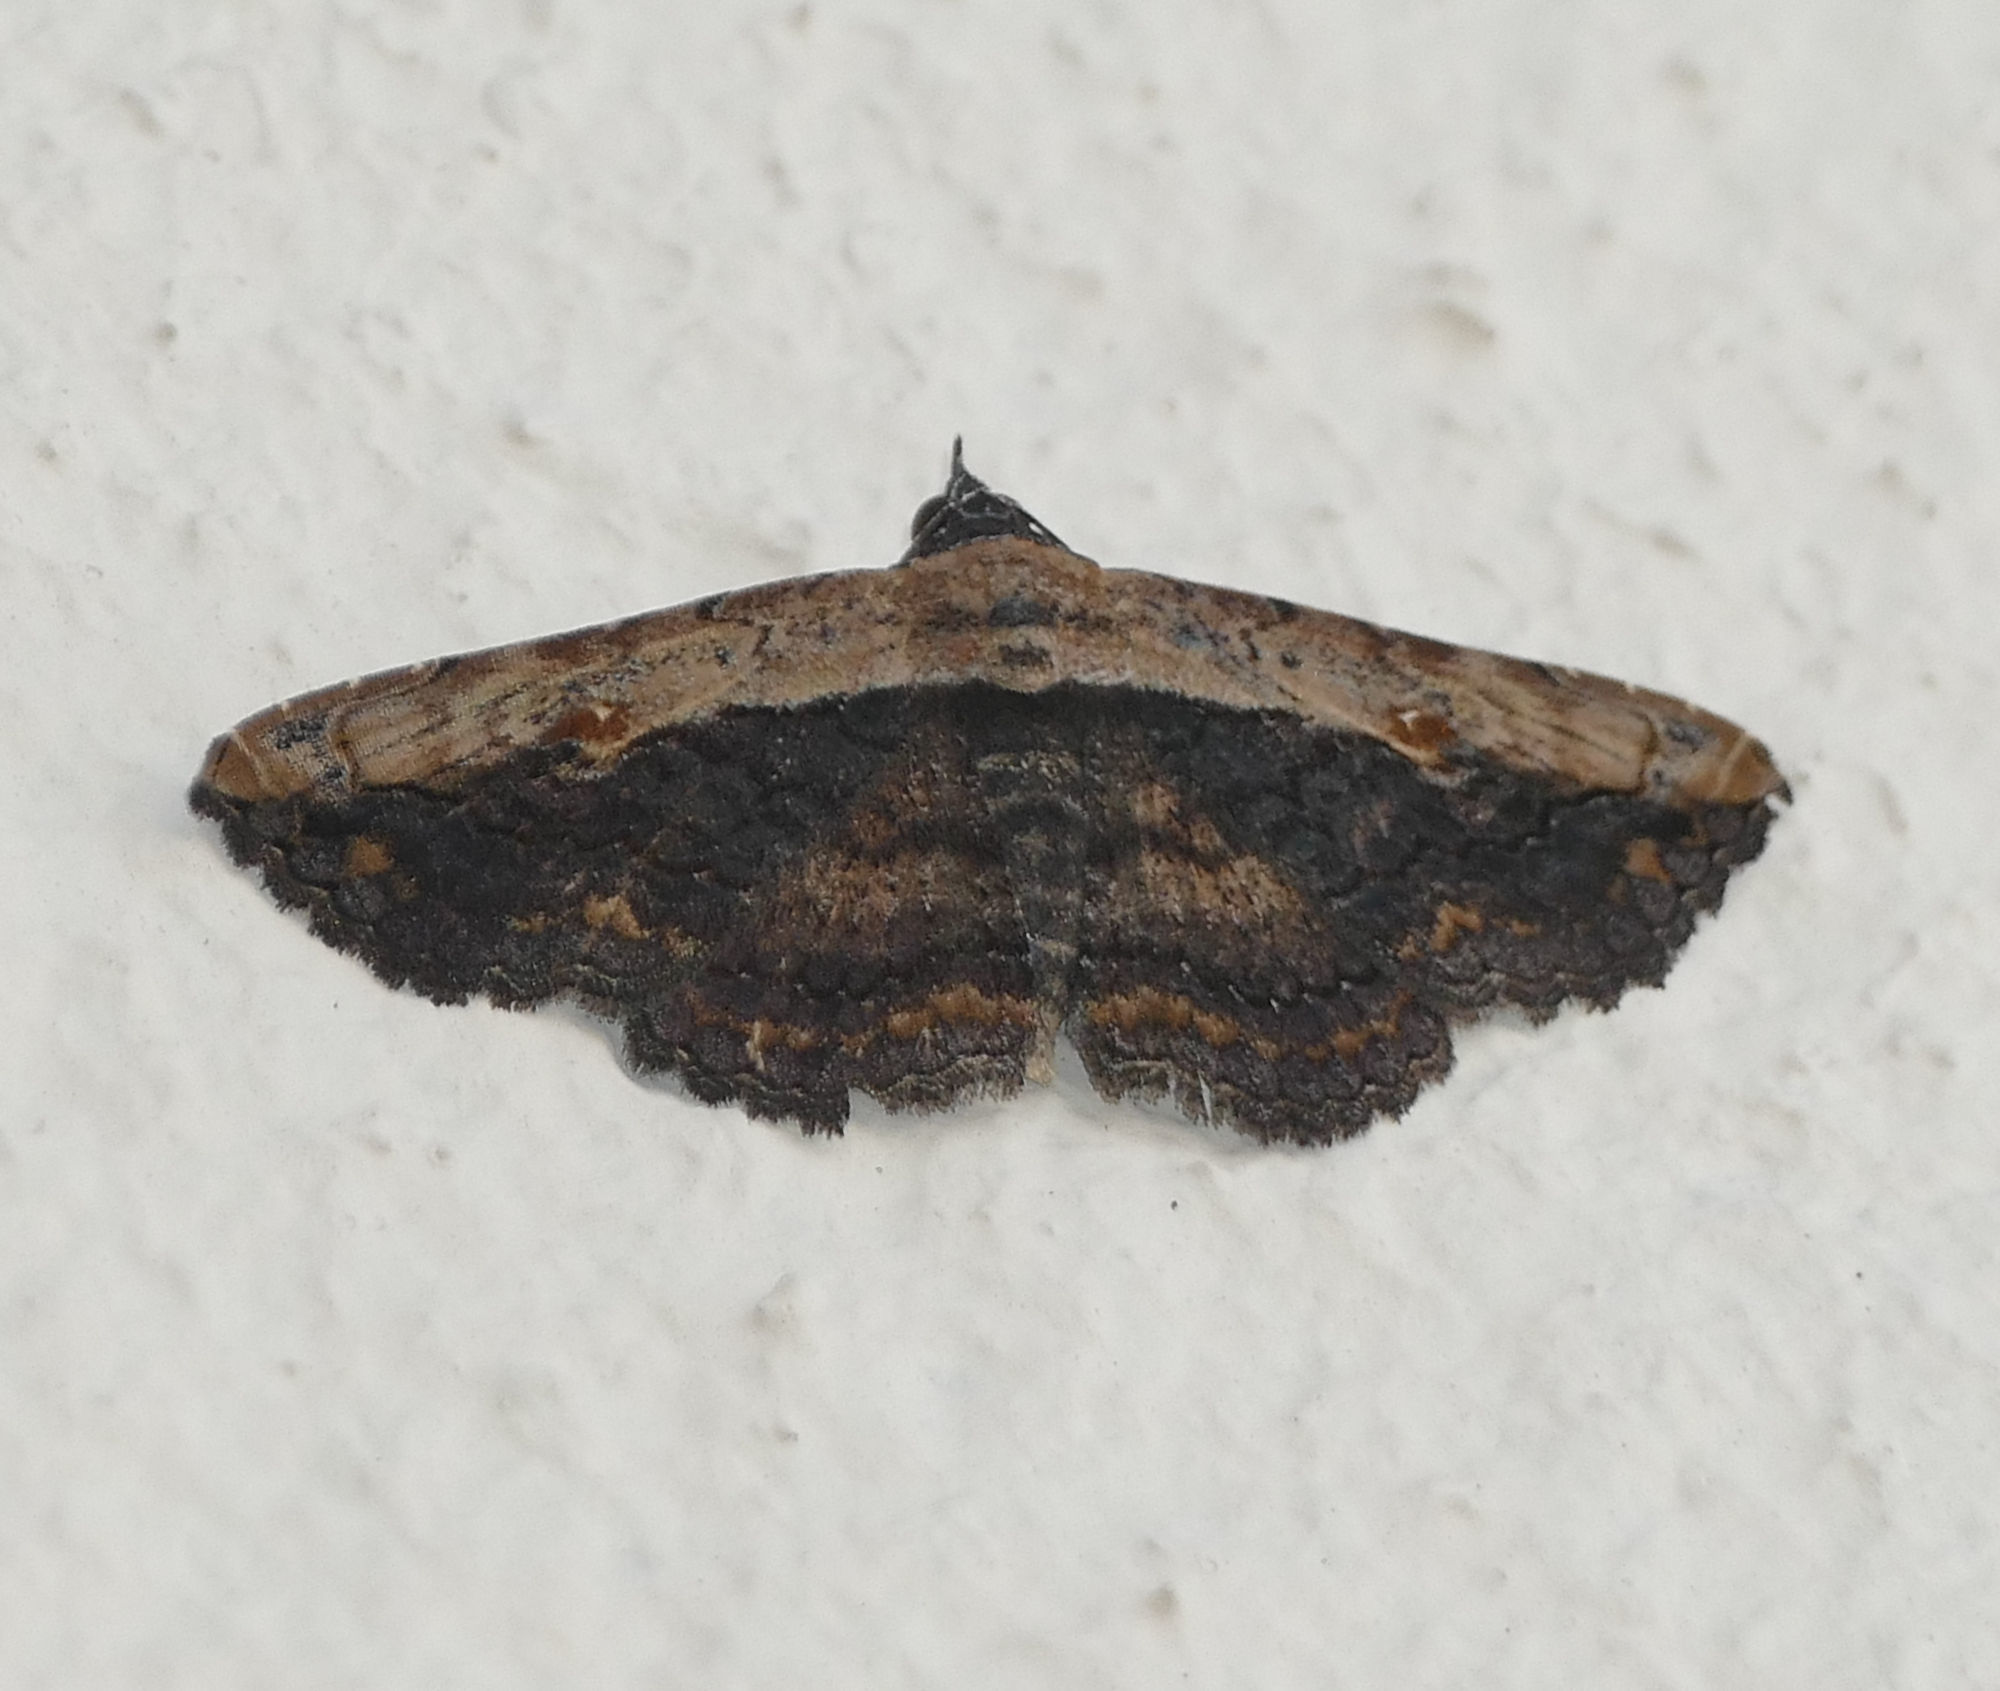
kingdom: Animalia
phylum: Arthropoda
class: Insecta
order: Lepidoptera
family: Erebidae
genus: Selenisa
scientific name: Selenisa sueroides
